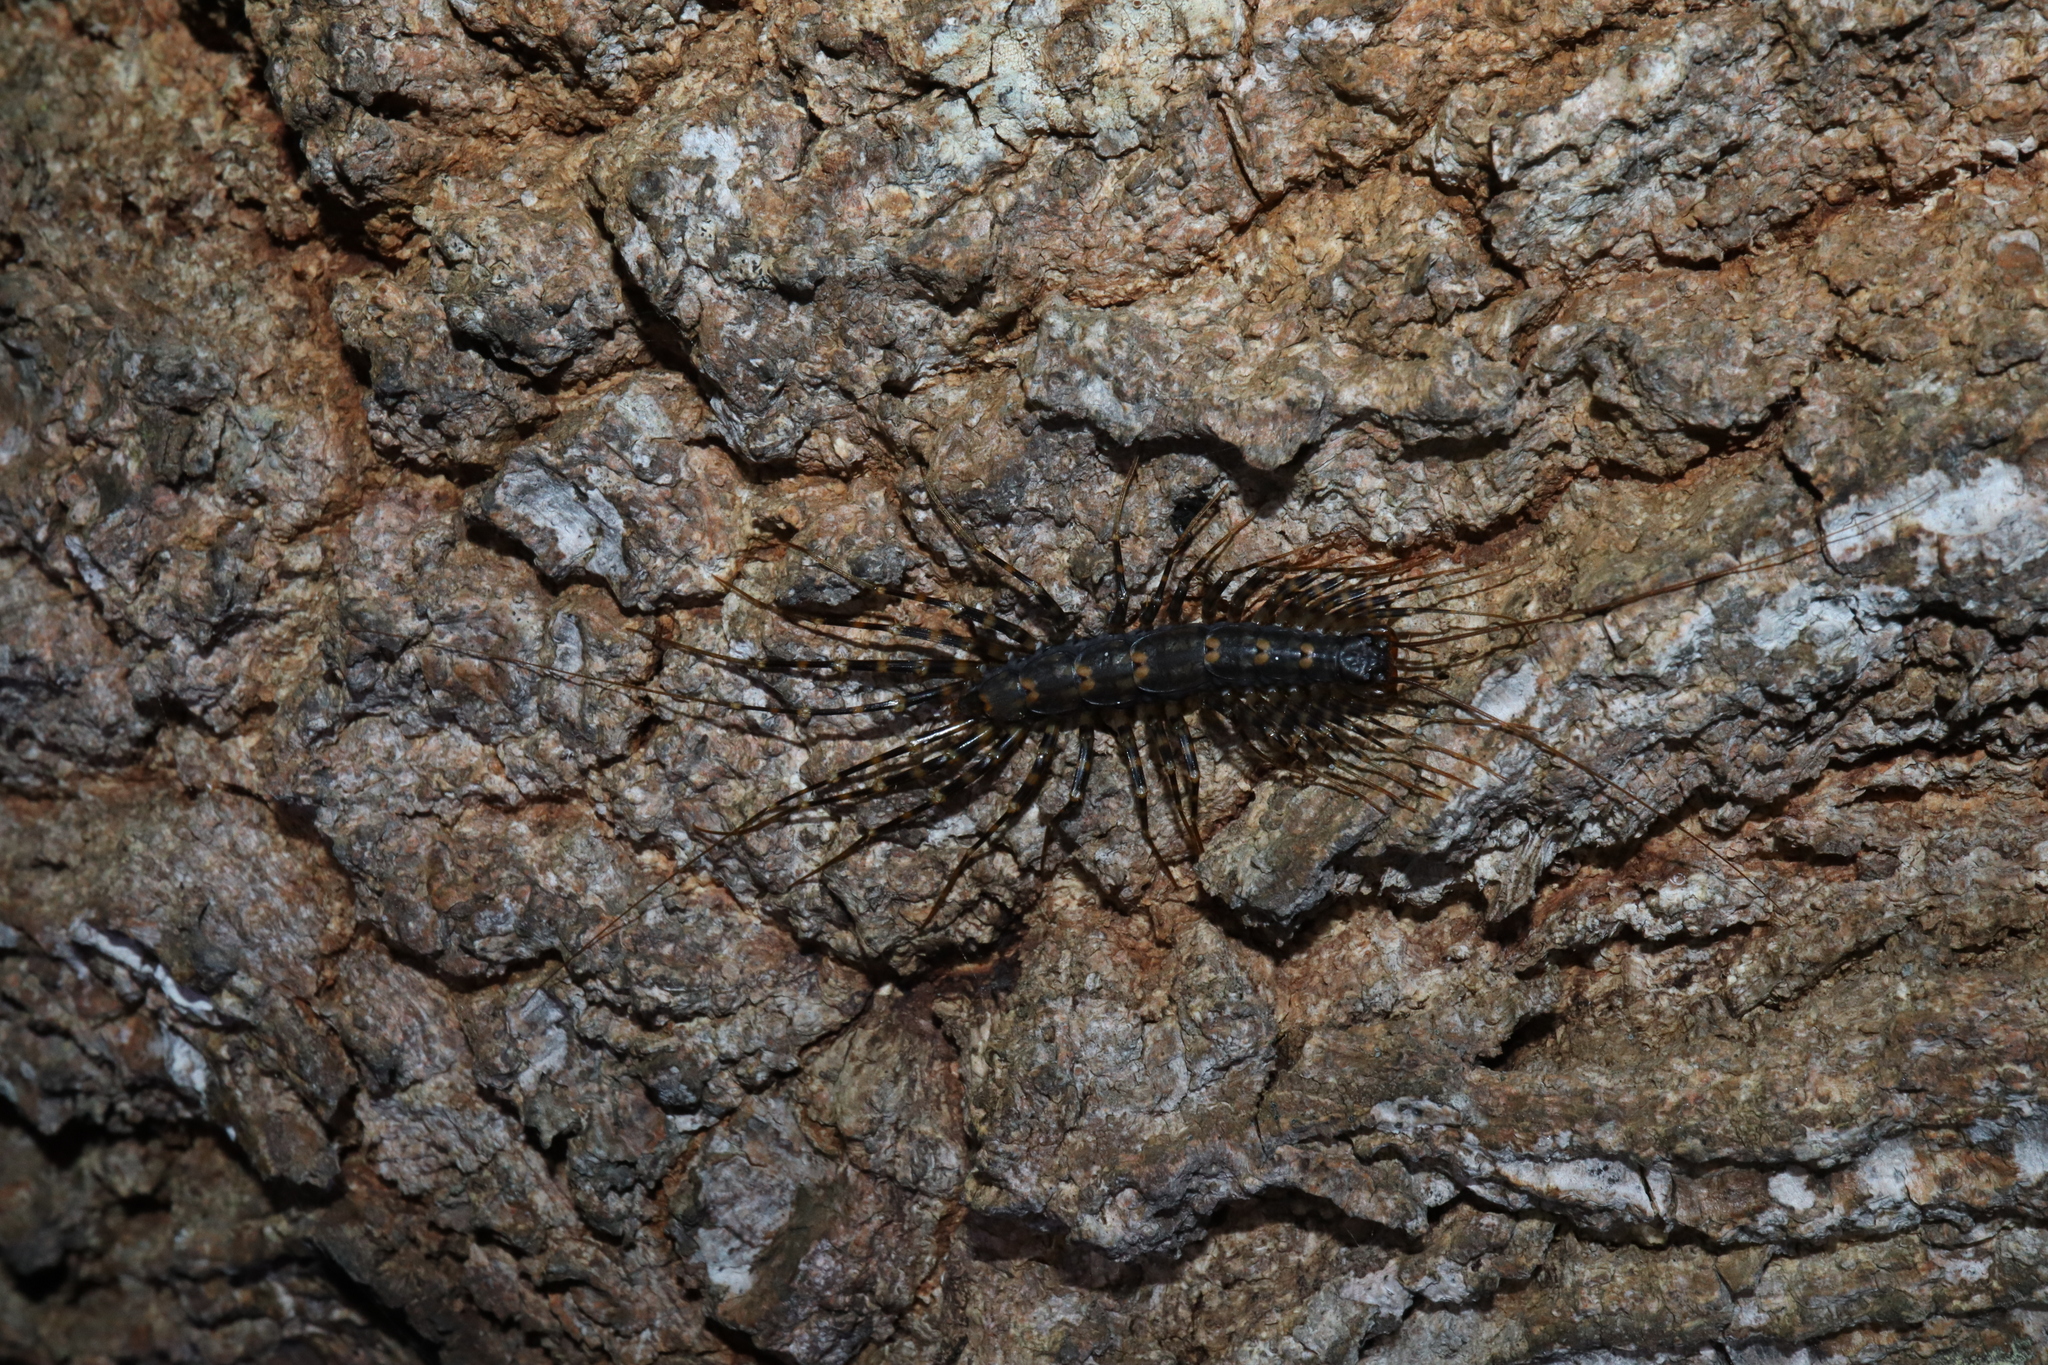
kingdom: Animalia
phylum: Arthropoda
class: Chilopoda
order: Scutigeromorpha
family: Scutigeridae
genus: Allothereua
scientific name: Allothereua maculata
